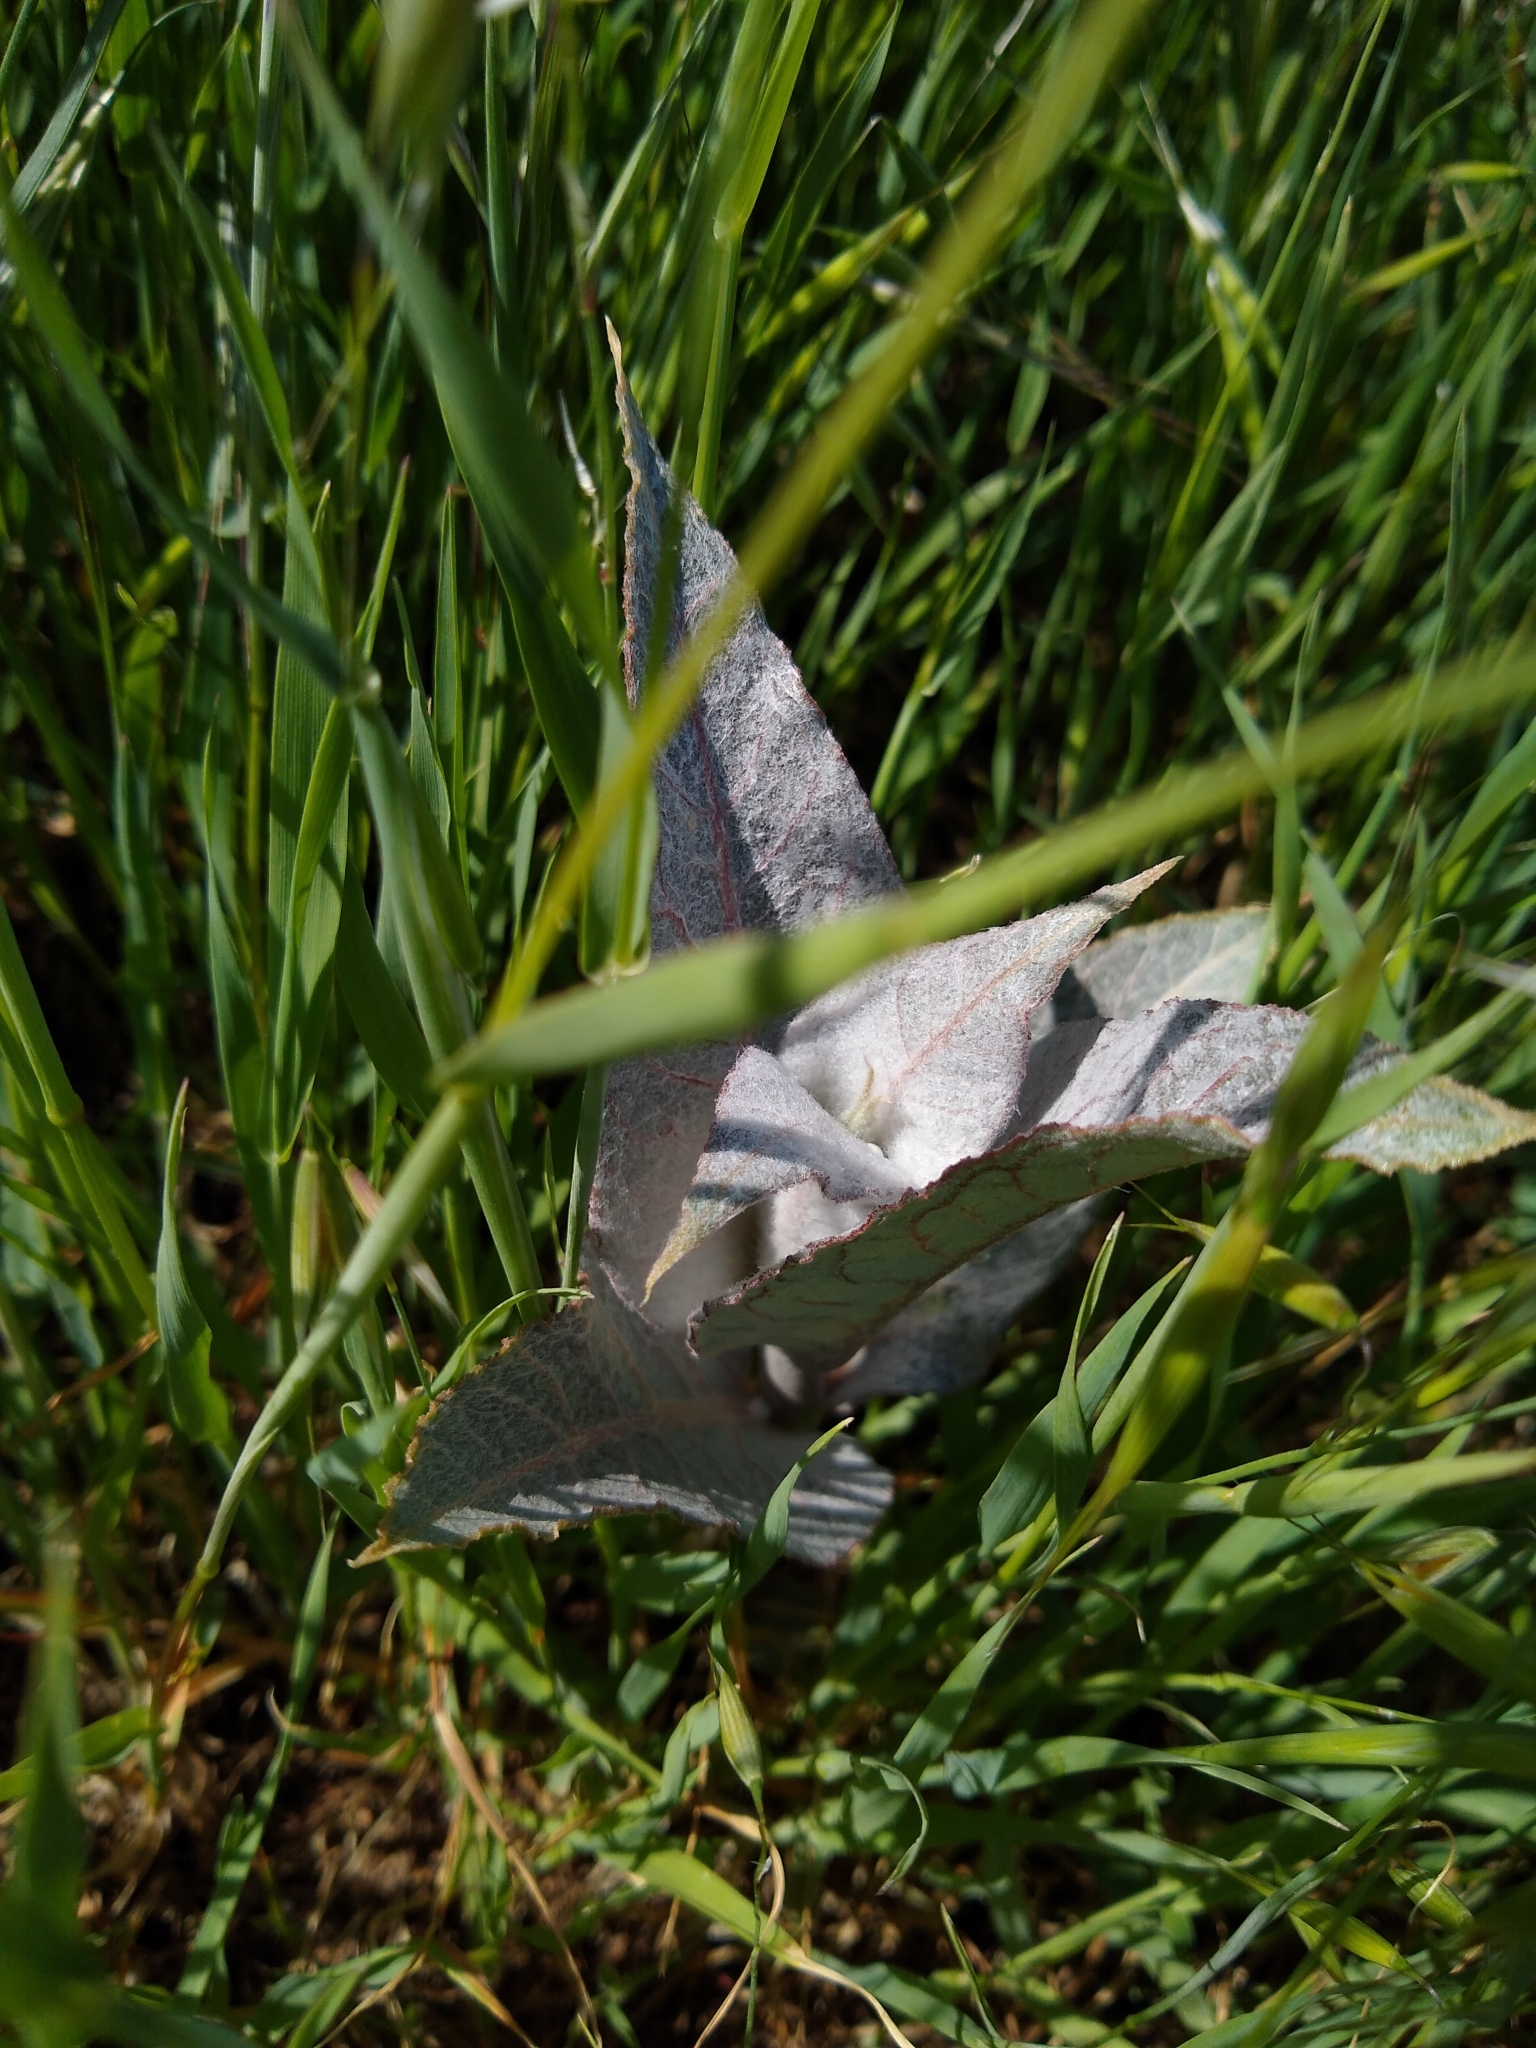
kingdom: Plantae
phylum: Tracheophyta
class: Magnoliopsida
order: Gentianales
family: Apocynaceae
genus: Asclepias
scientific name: Asclepias erosa
